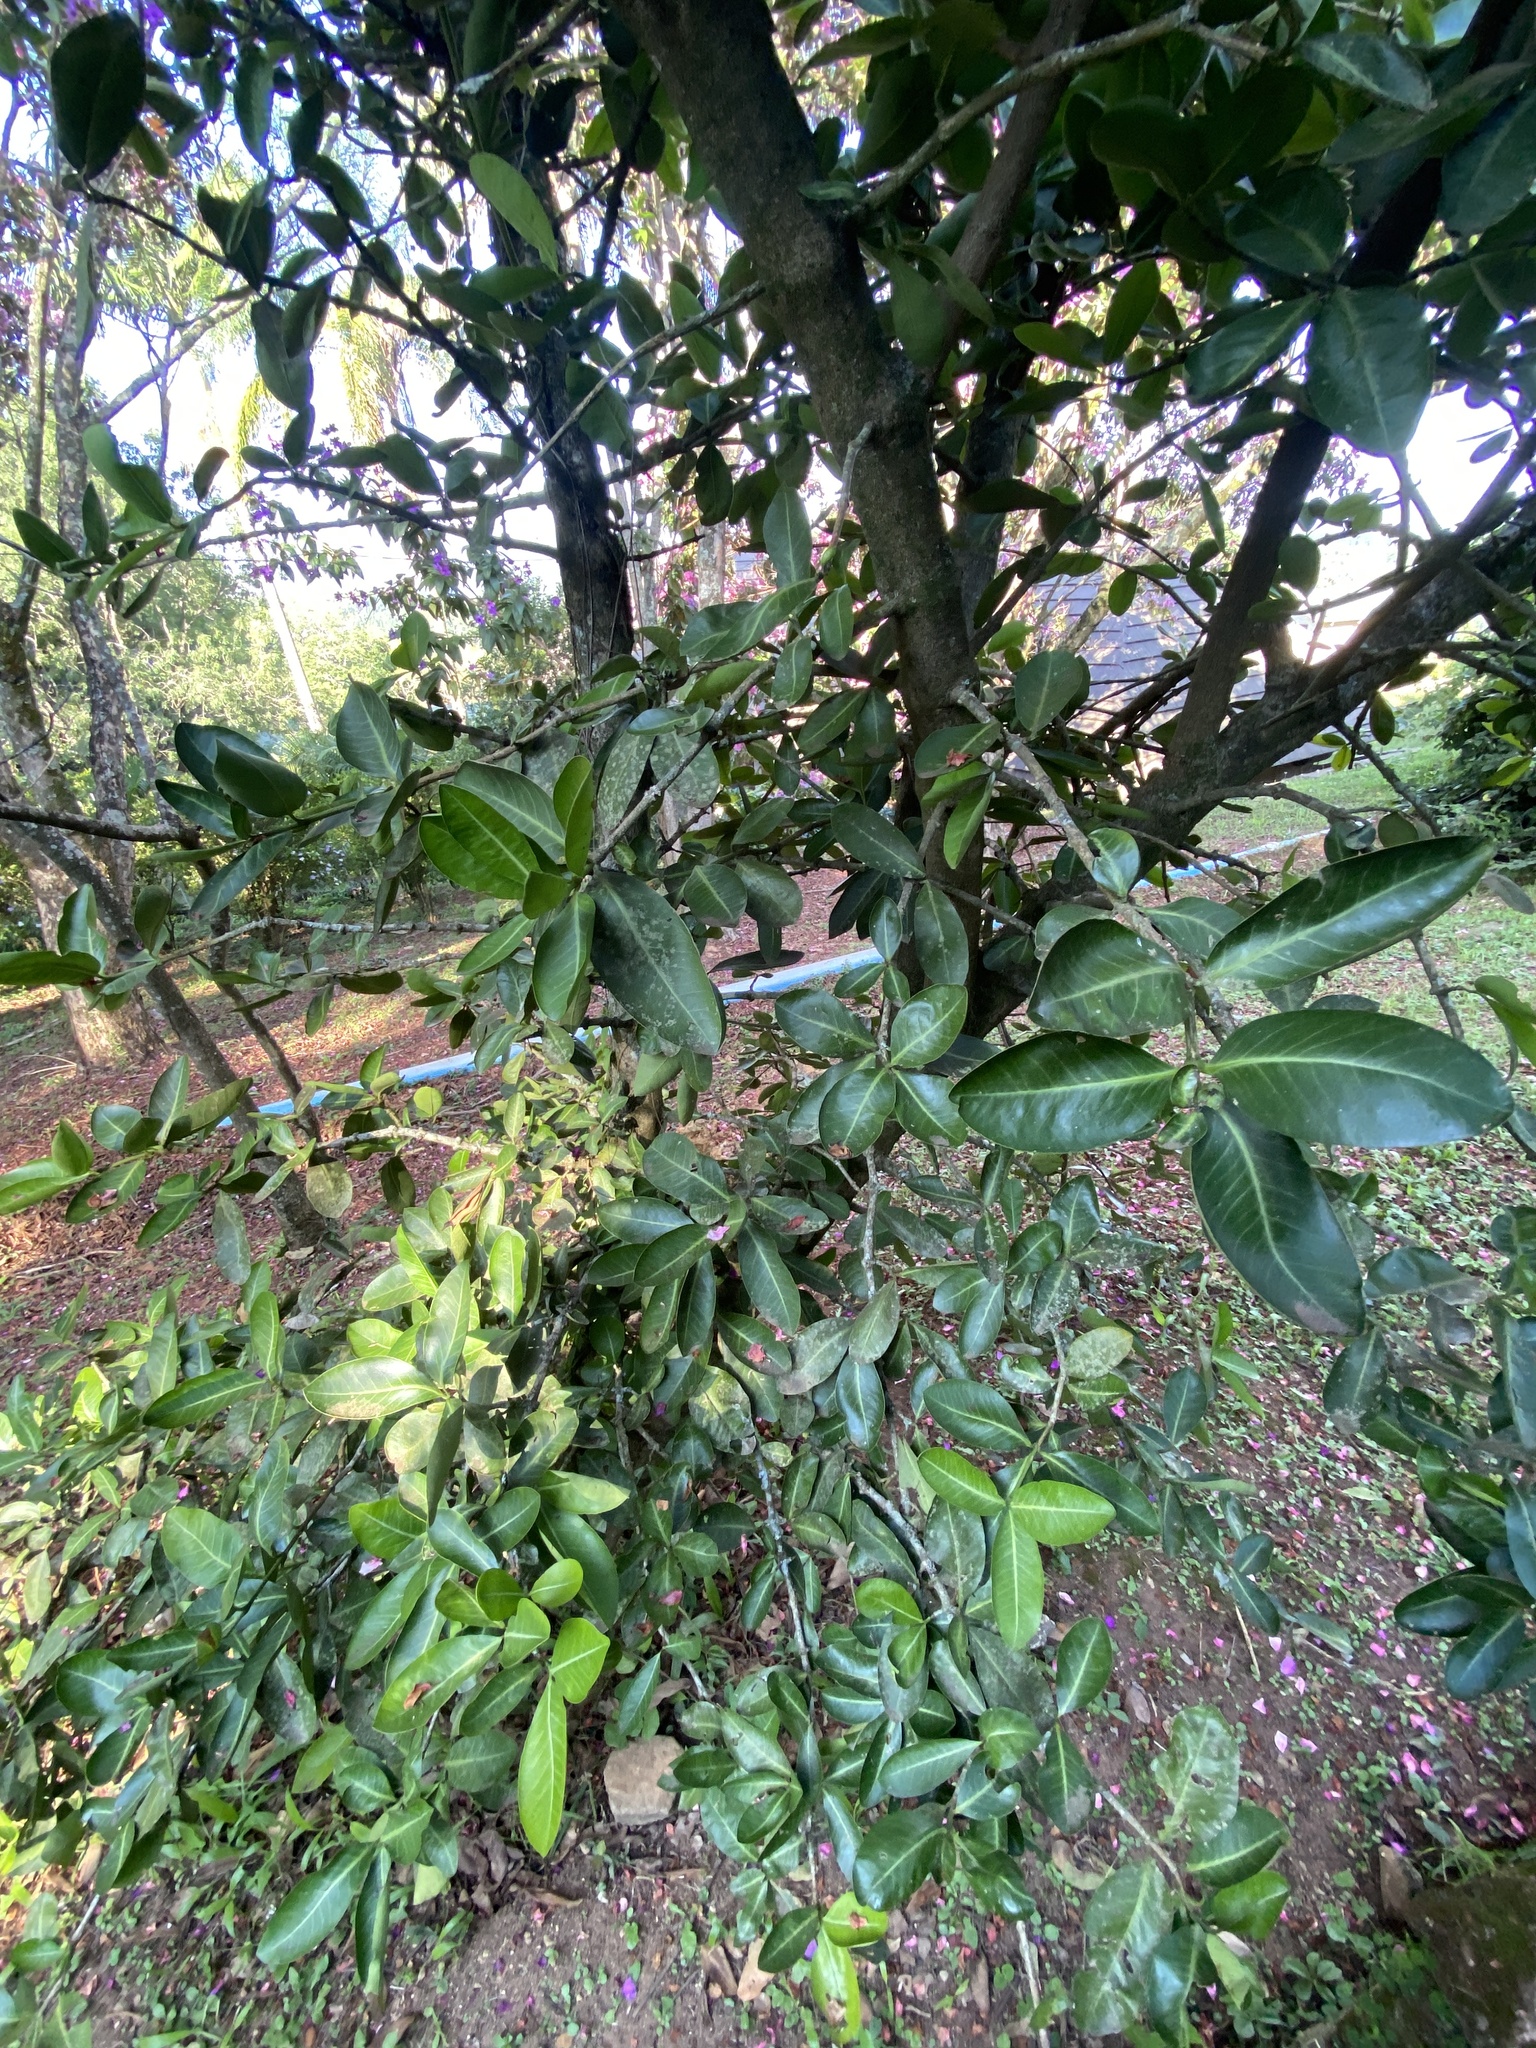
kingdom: Plantae
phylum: Tracheophyta
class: Magnoliopsida
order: Malpighiales
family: Clusiaceae
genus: Garcinia
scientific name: Garcinia livingstonei
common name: African mangosteen
